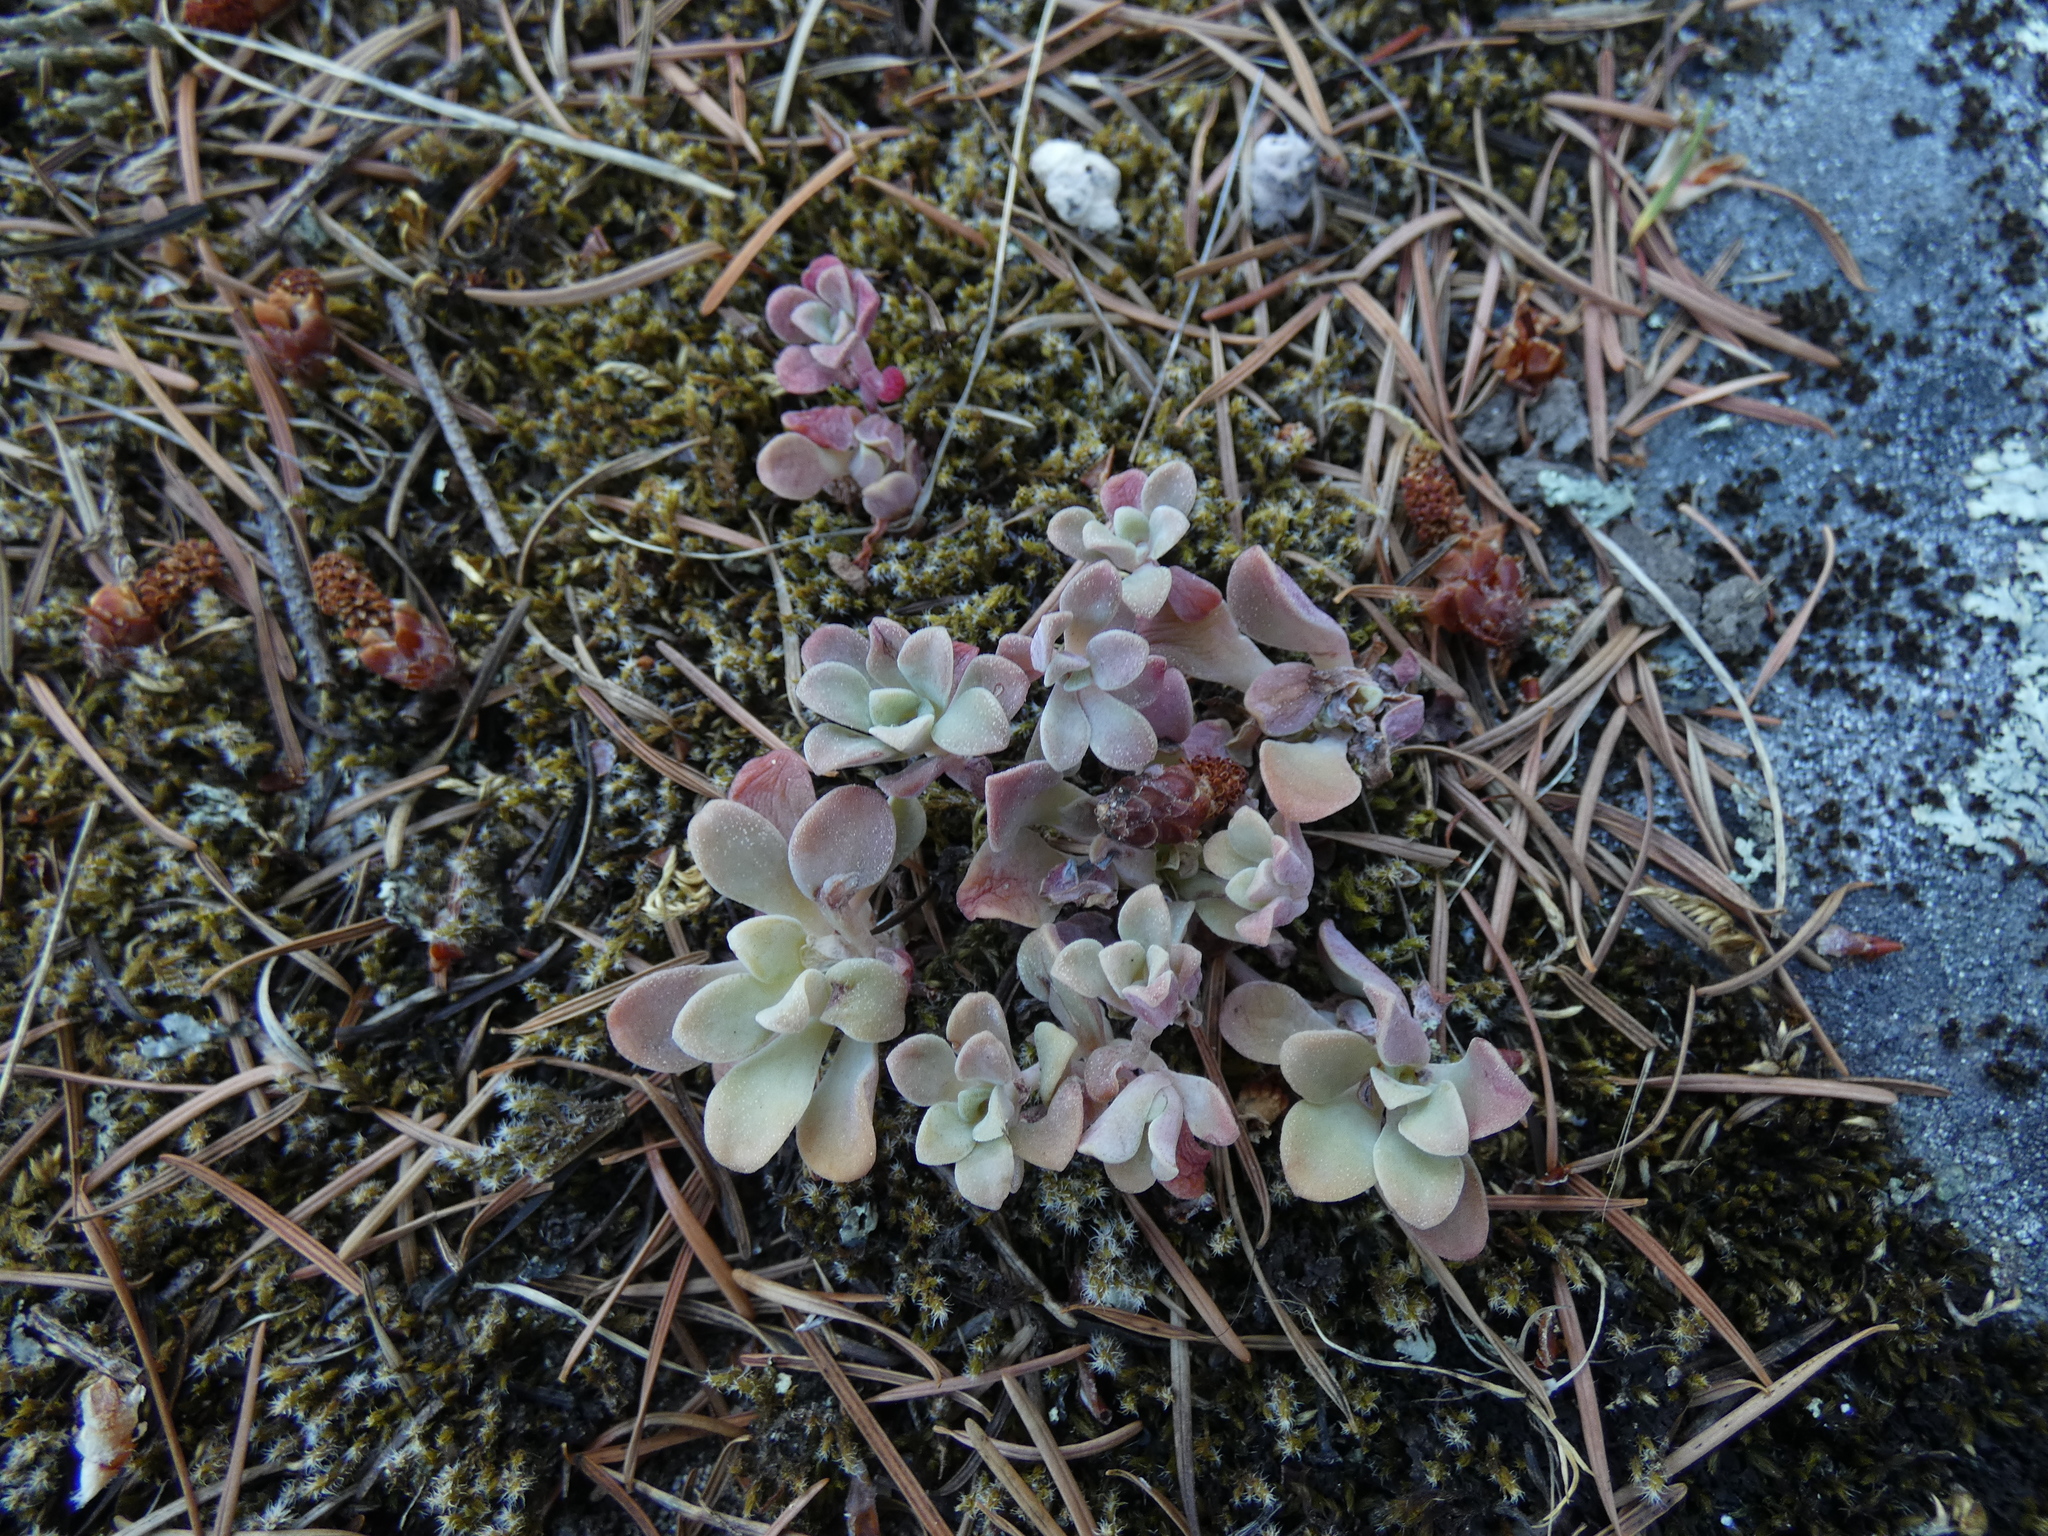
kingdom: Plantae
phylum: Tracheophyta
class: Magnoliopsida
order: Saxifragales
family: Crassulaceae
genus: Sedum
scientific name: Sedum spathulifolium
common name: Colorado stonecrop
